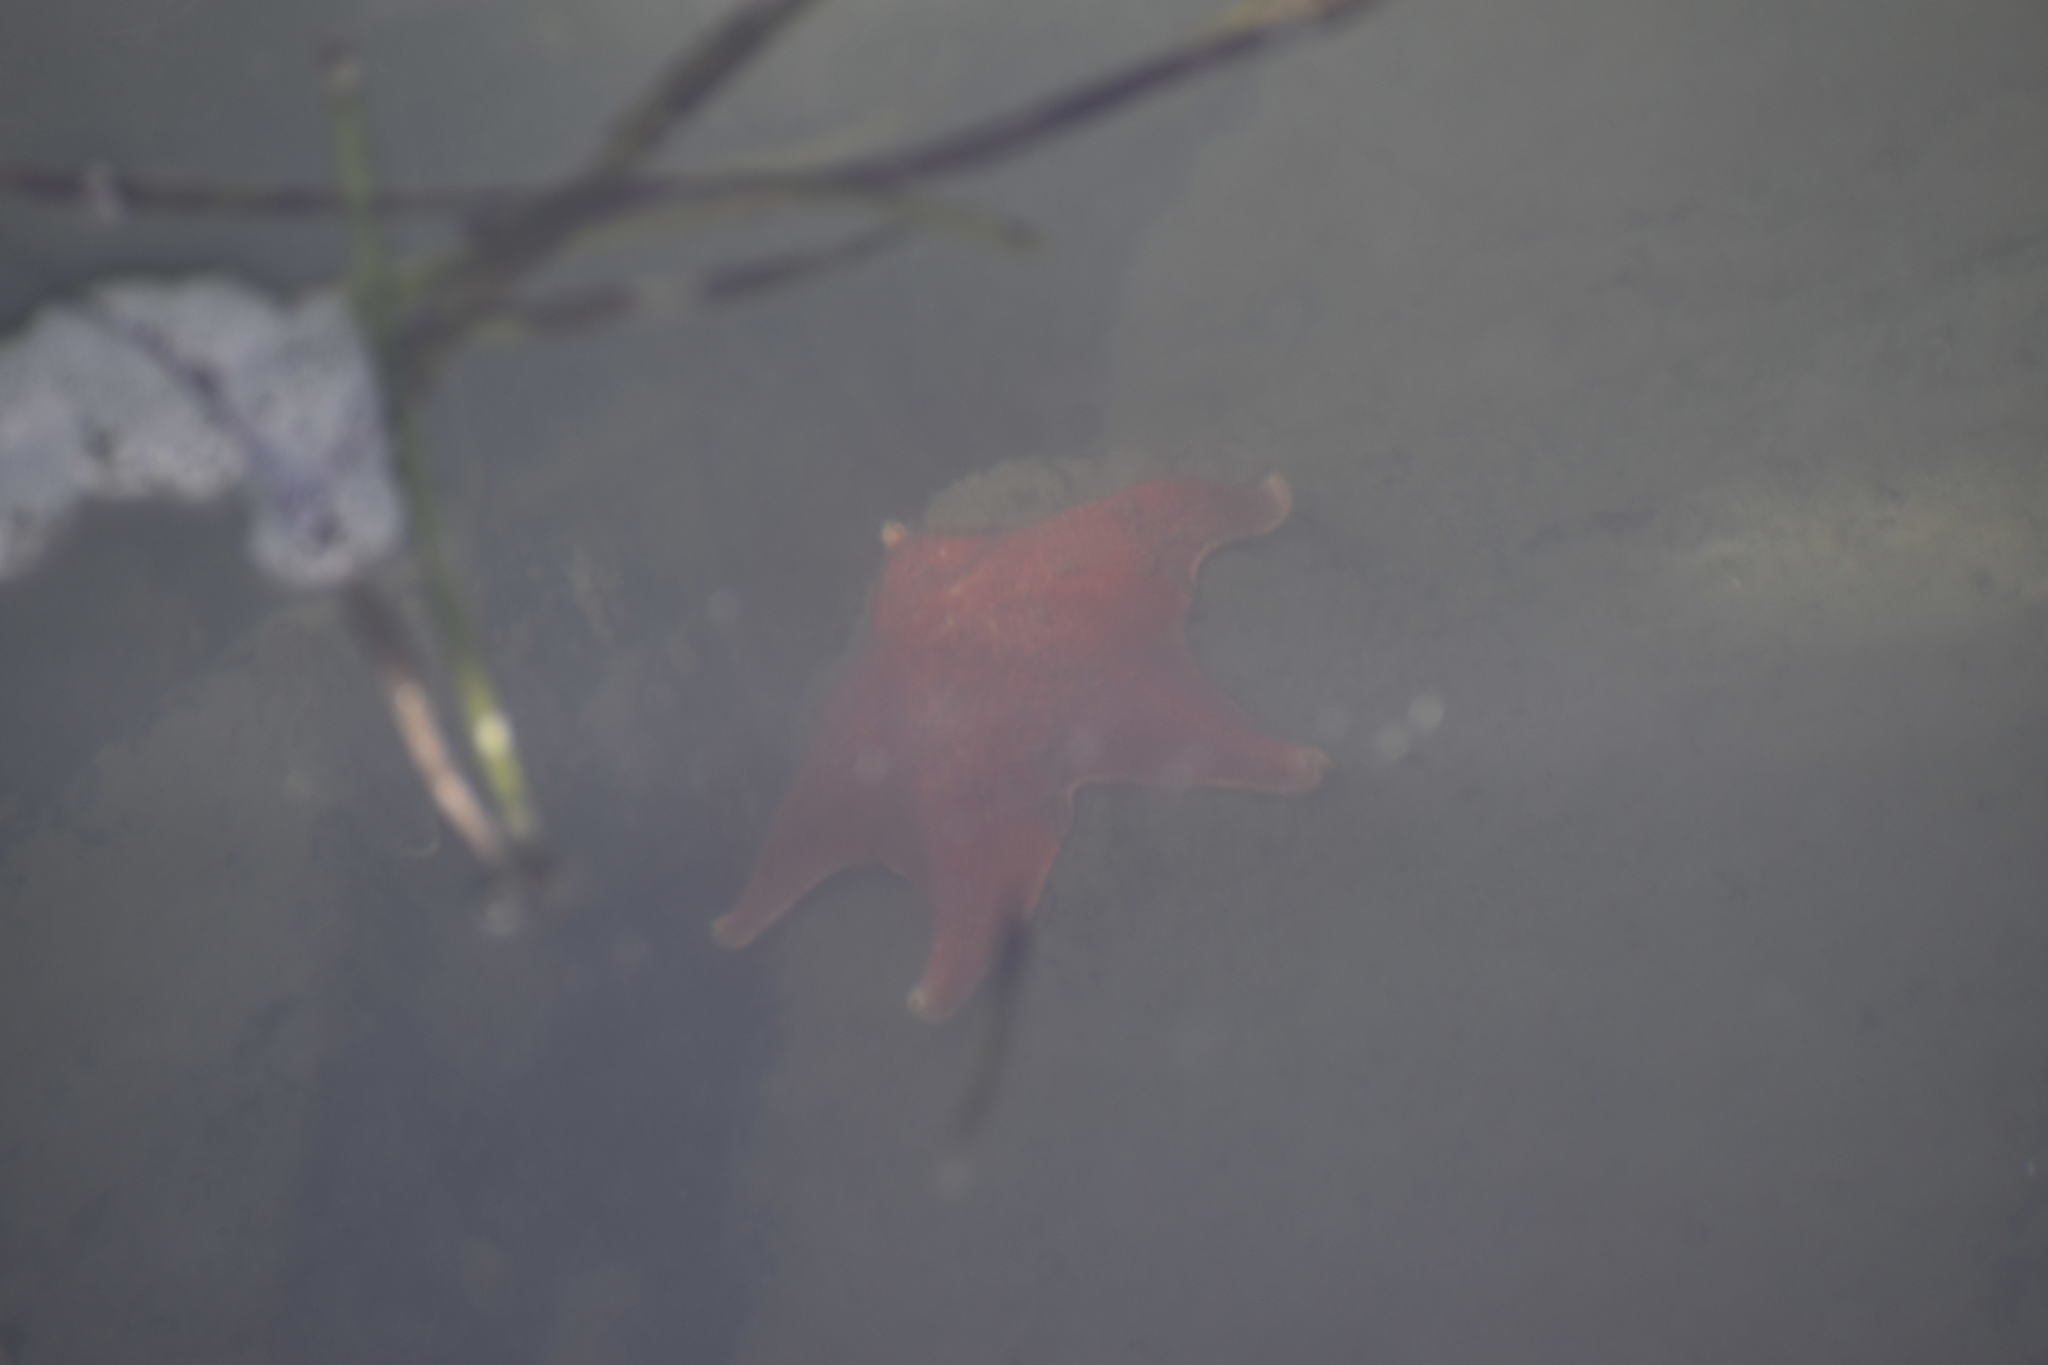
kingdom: Animalia
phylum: Echinodermata
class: Asteroidea
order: Valvatida
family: Asterinidae
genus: Patiria
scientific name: Patiria miniata
